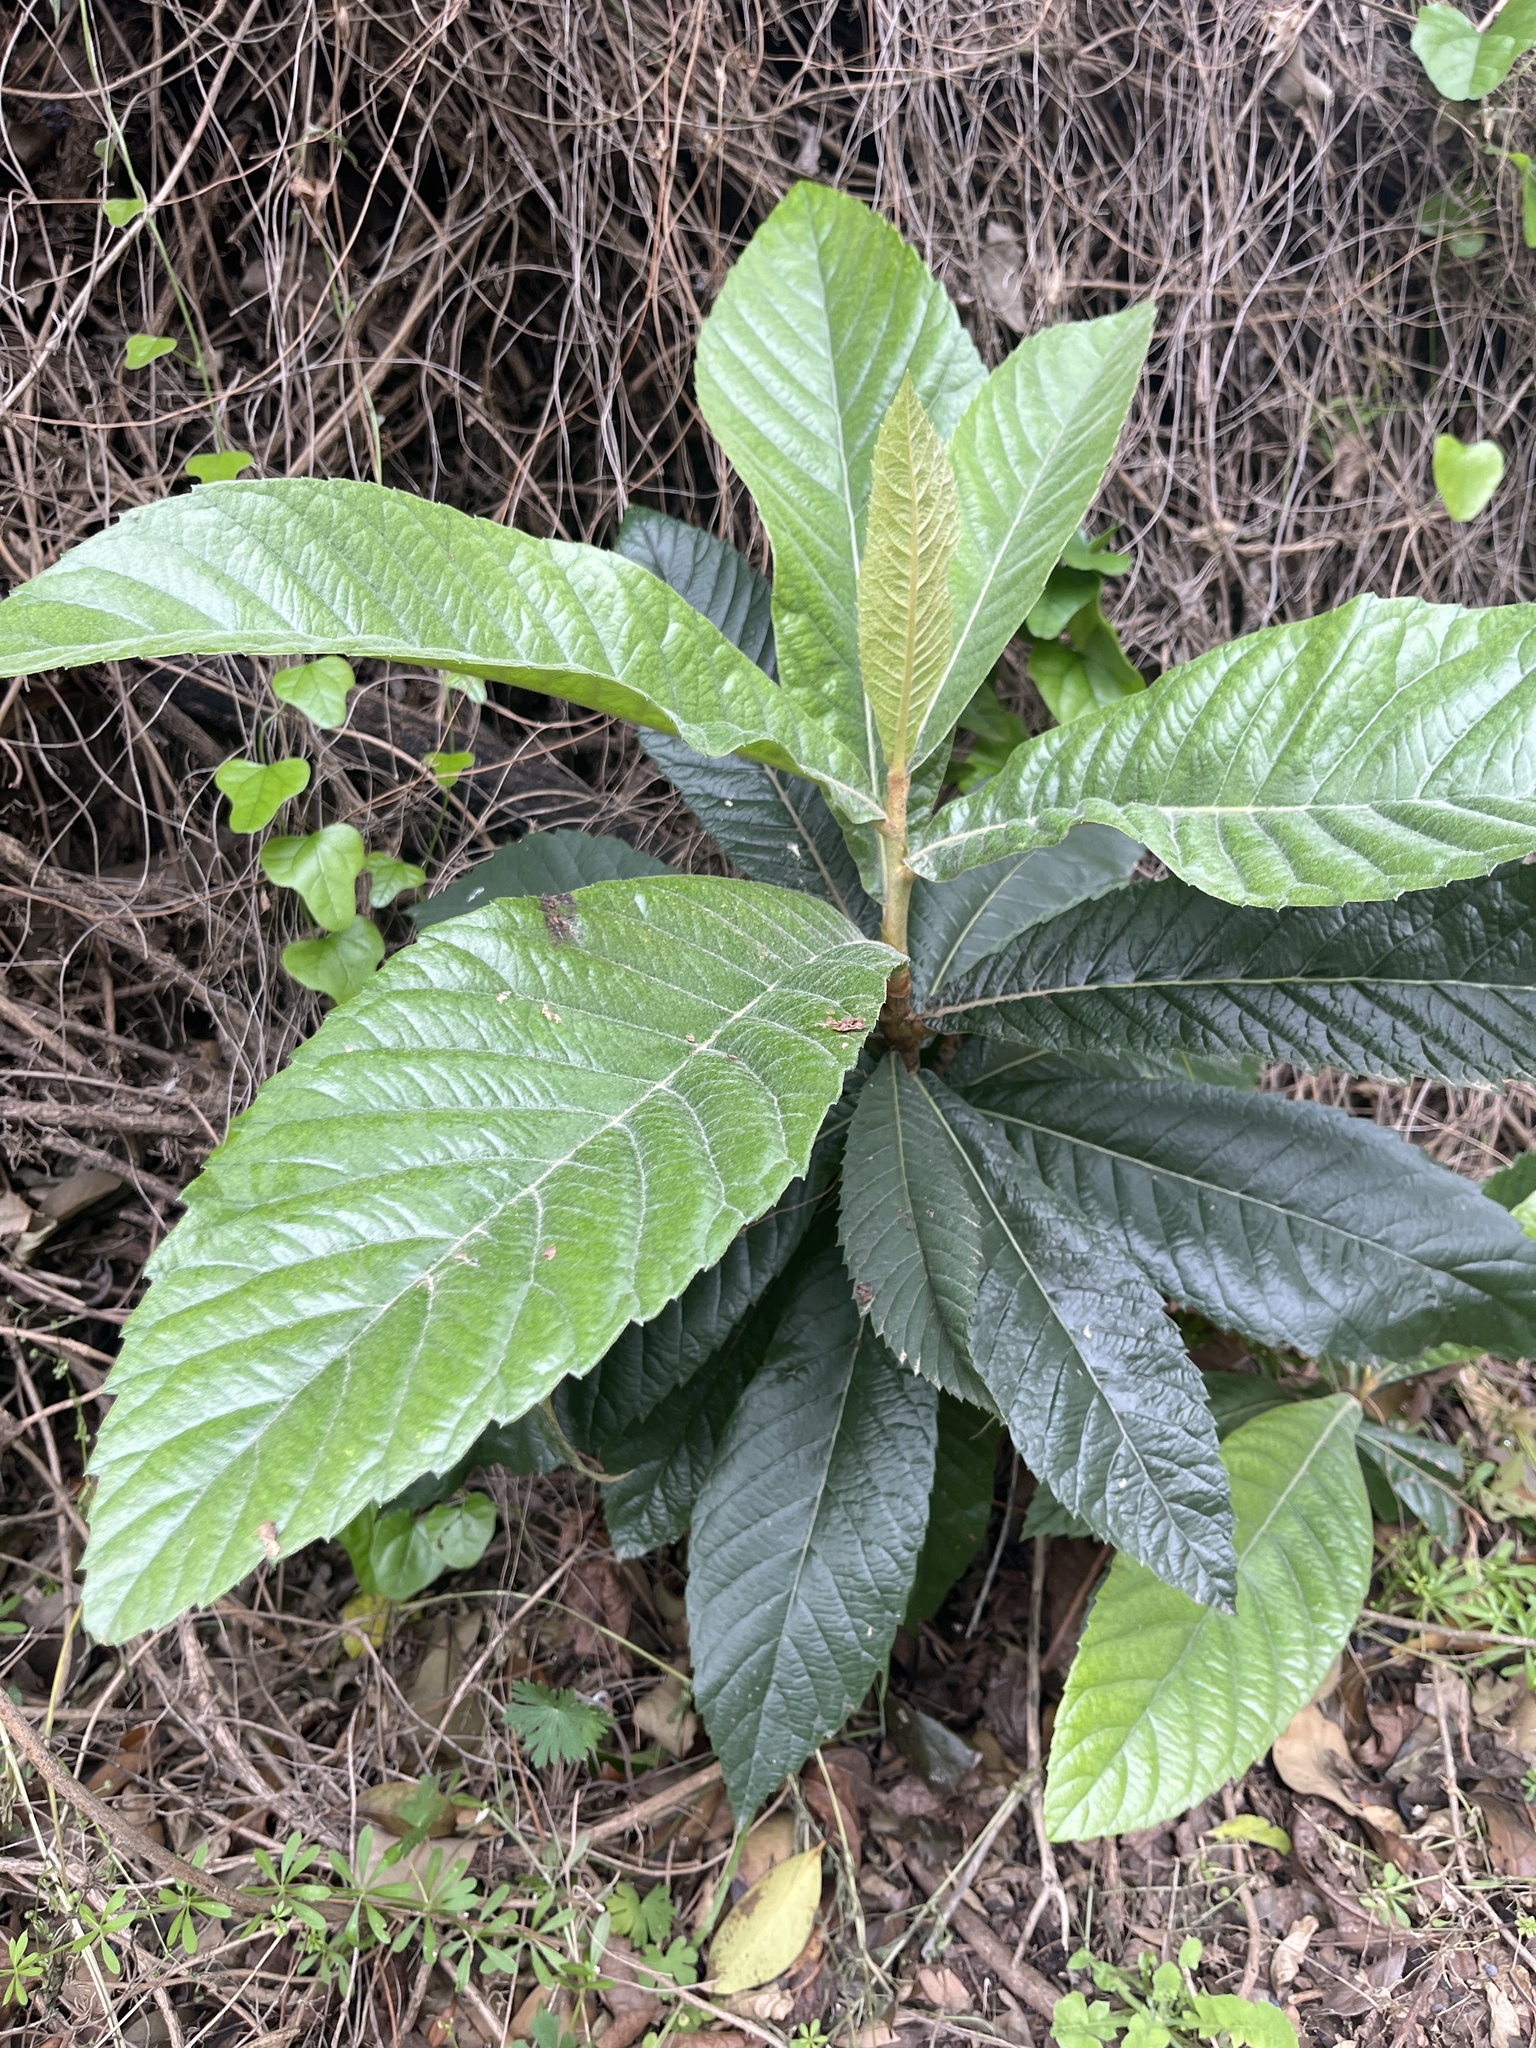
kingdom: Plantae
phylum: Tracheophyta
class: Magnoliopsida
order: Rosales
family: Rosaceae
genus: Rhaphiolepis
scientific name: Rhaphiolepis bibas
